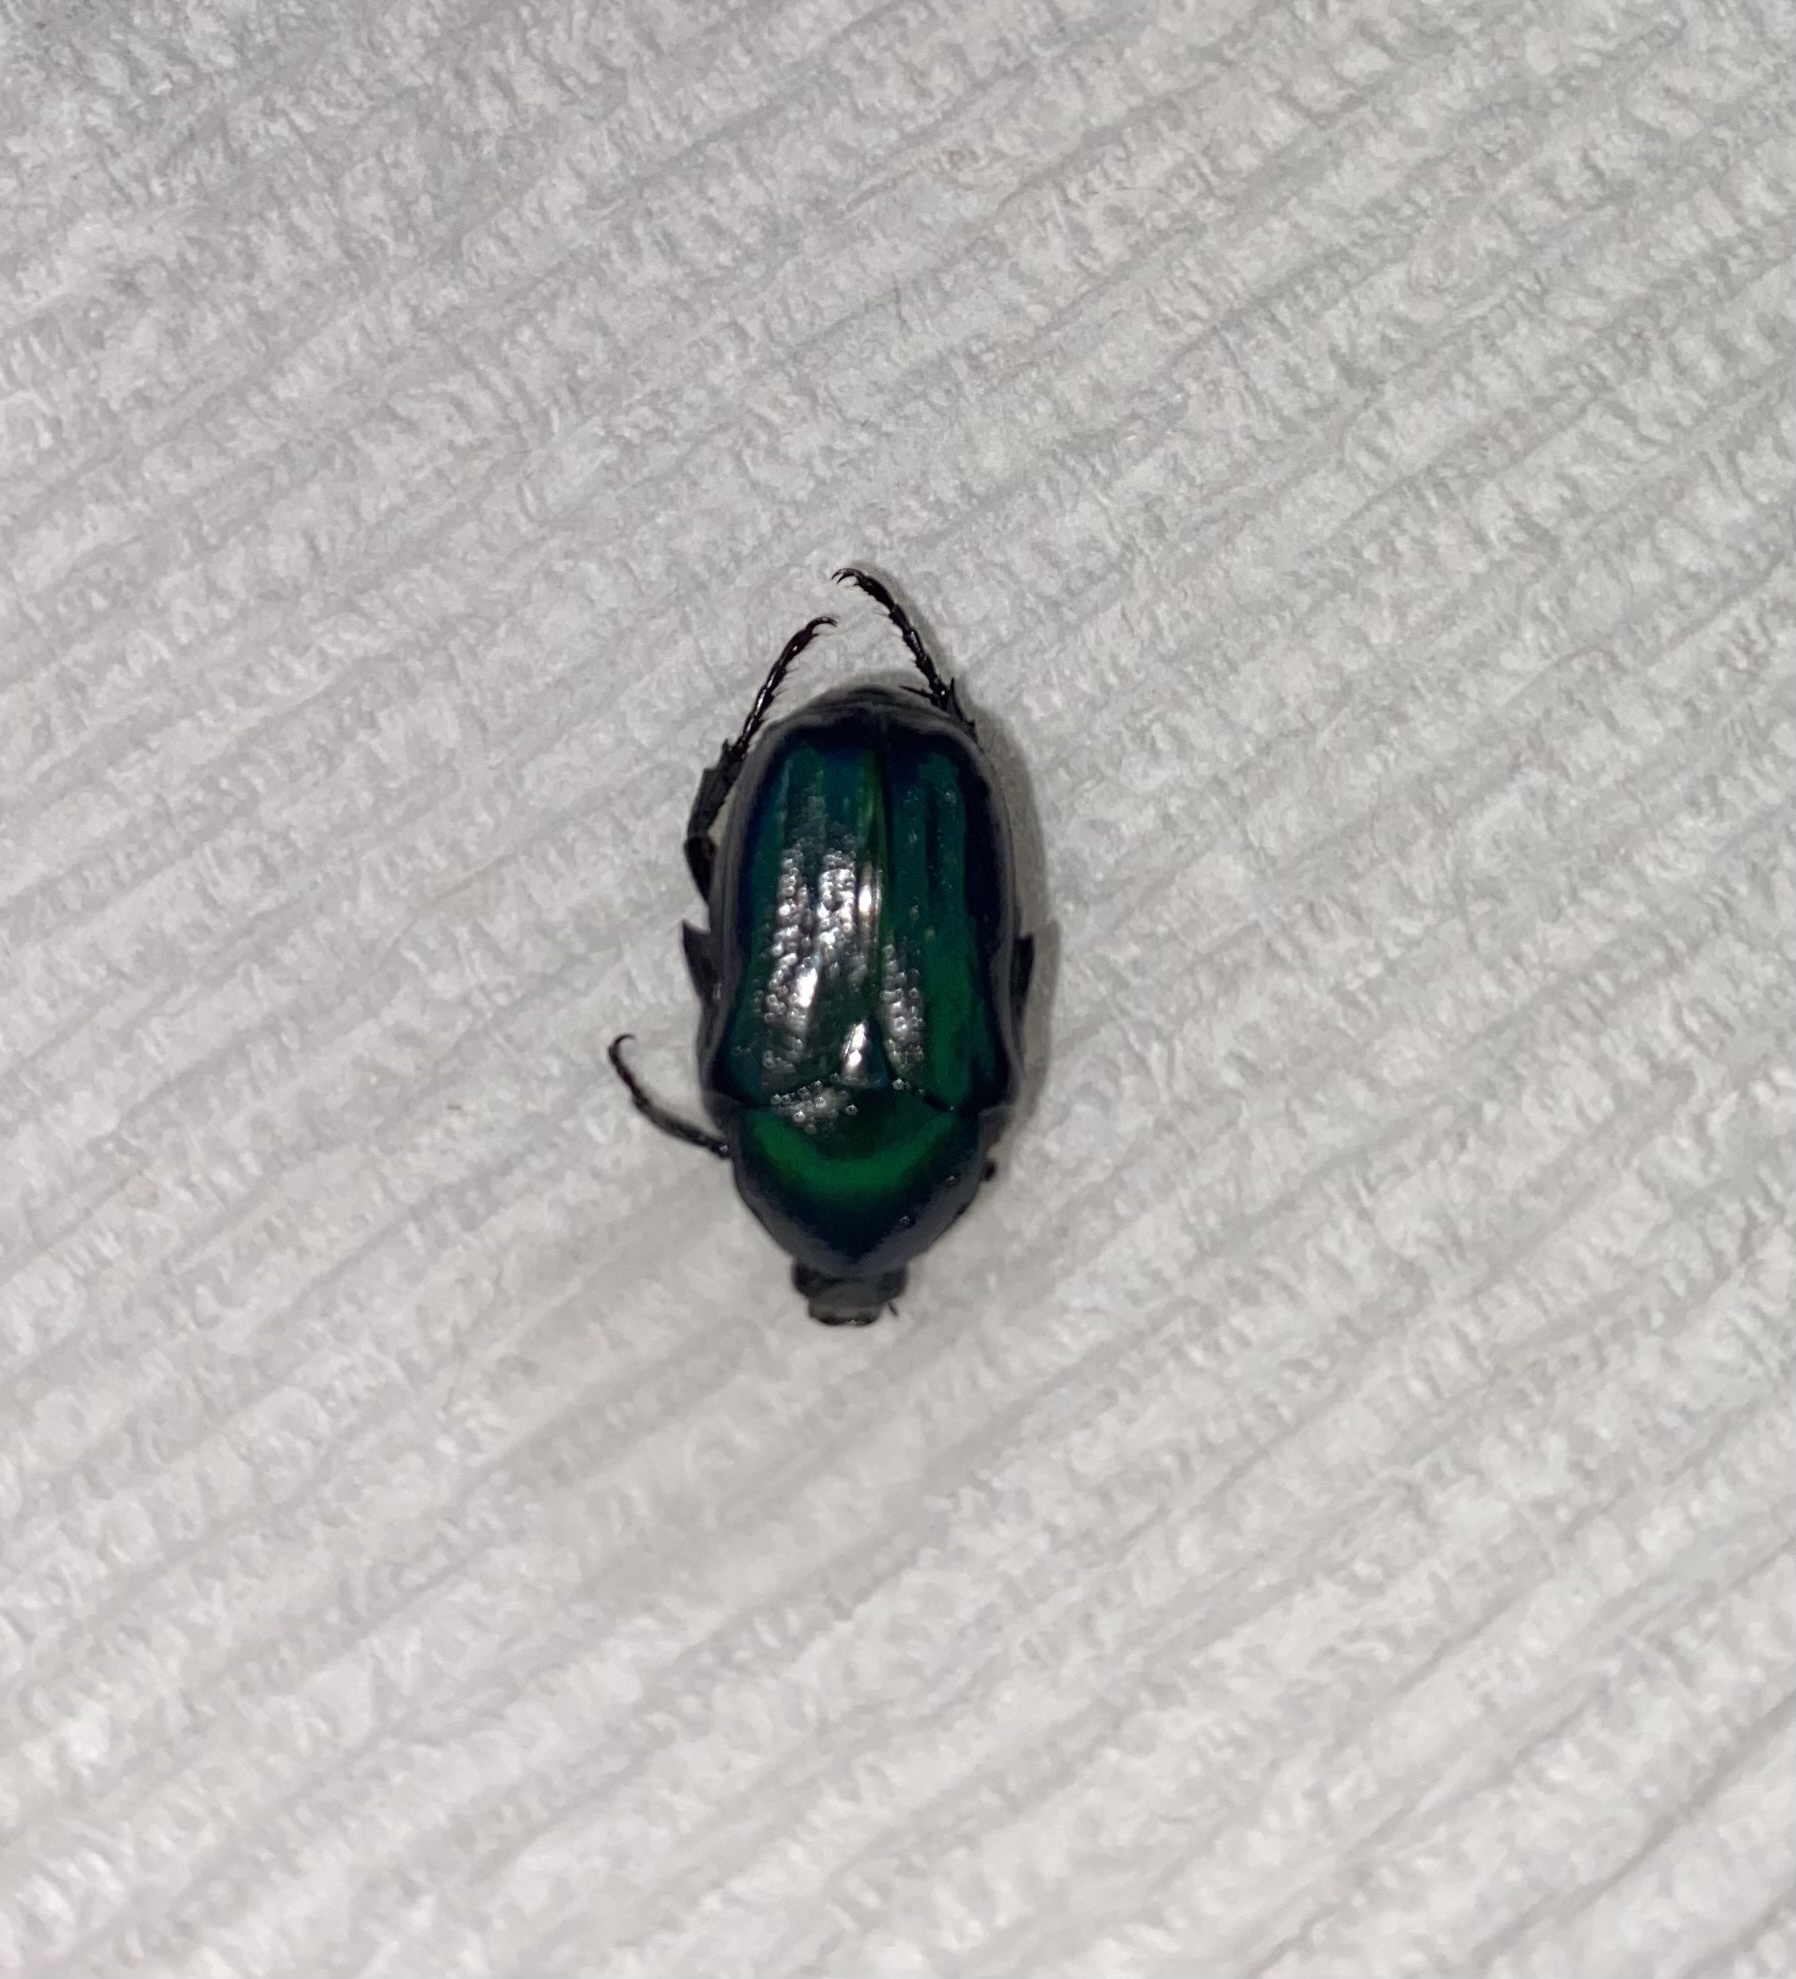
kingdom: Animalia
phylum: Arthropoda
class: Insecta
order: Coleoptera
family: Scarabaeidae
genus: Euphoria
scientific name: Euphoria monticola
